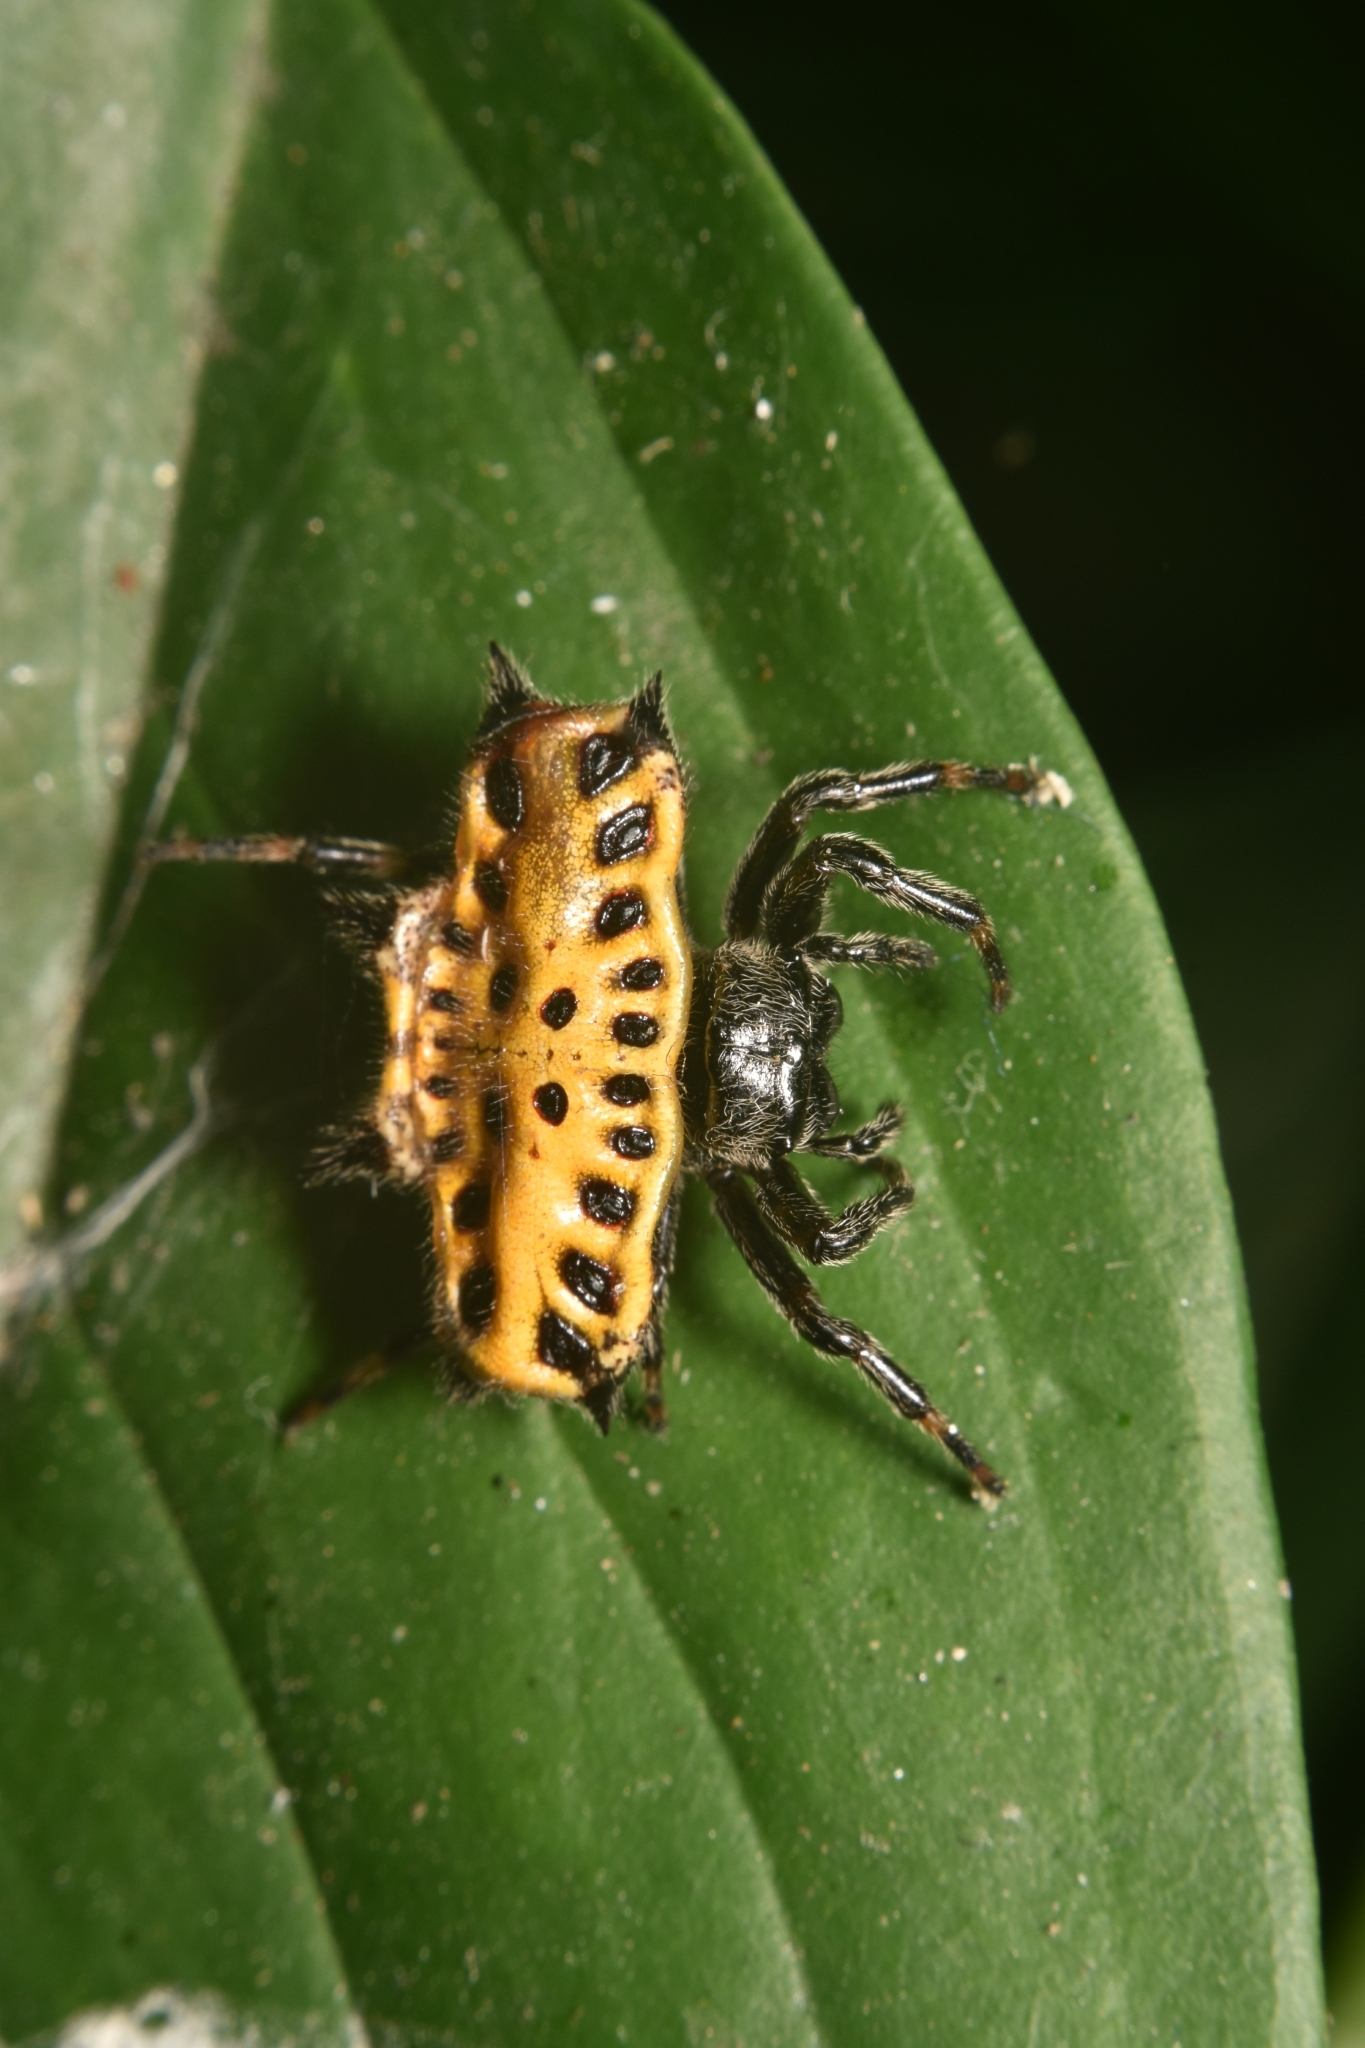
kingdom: Animalia
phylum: Arthropoda
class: Arachnida
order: Araneae
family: Araneidae
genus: Gasteracantha
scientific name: Gasteracantha cancriformis
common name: Orb weavers
